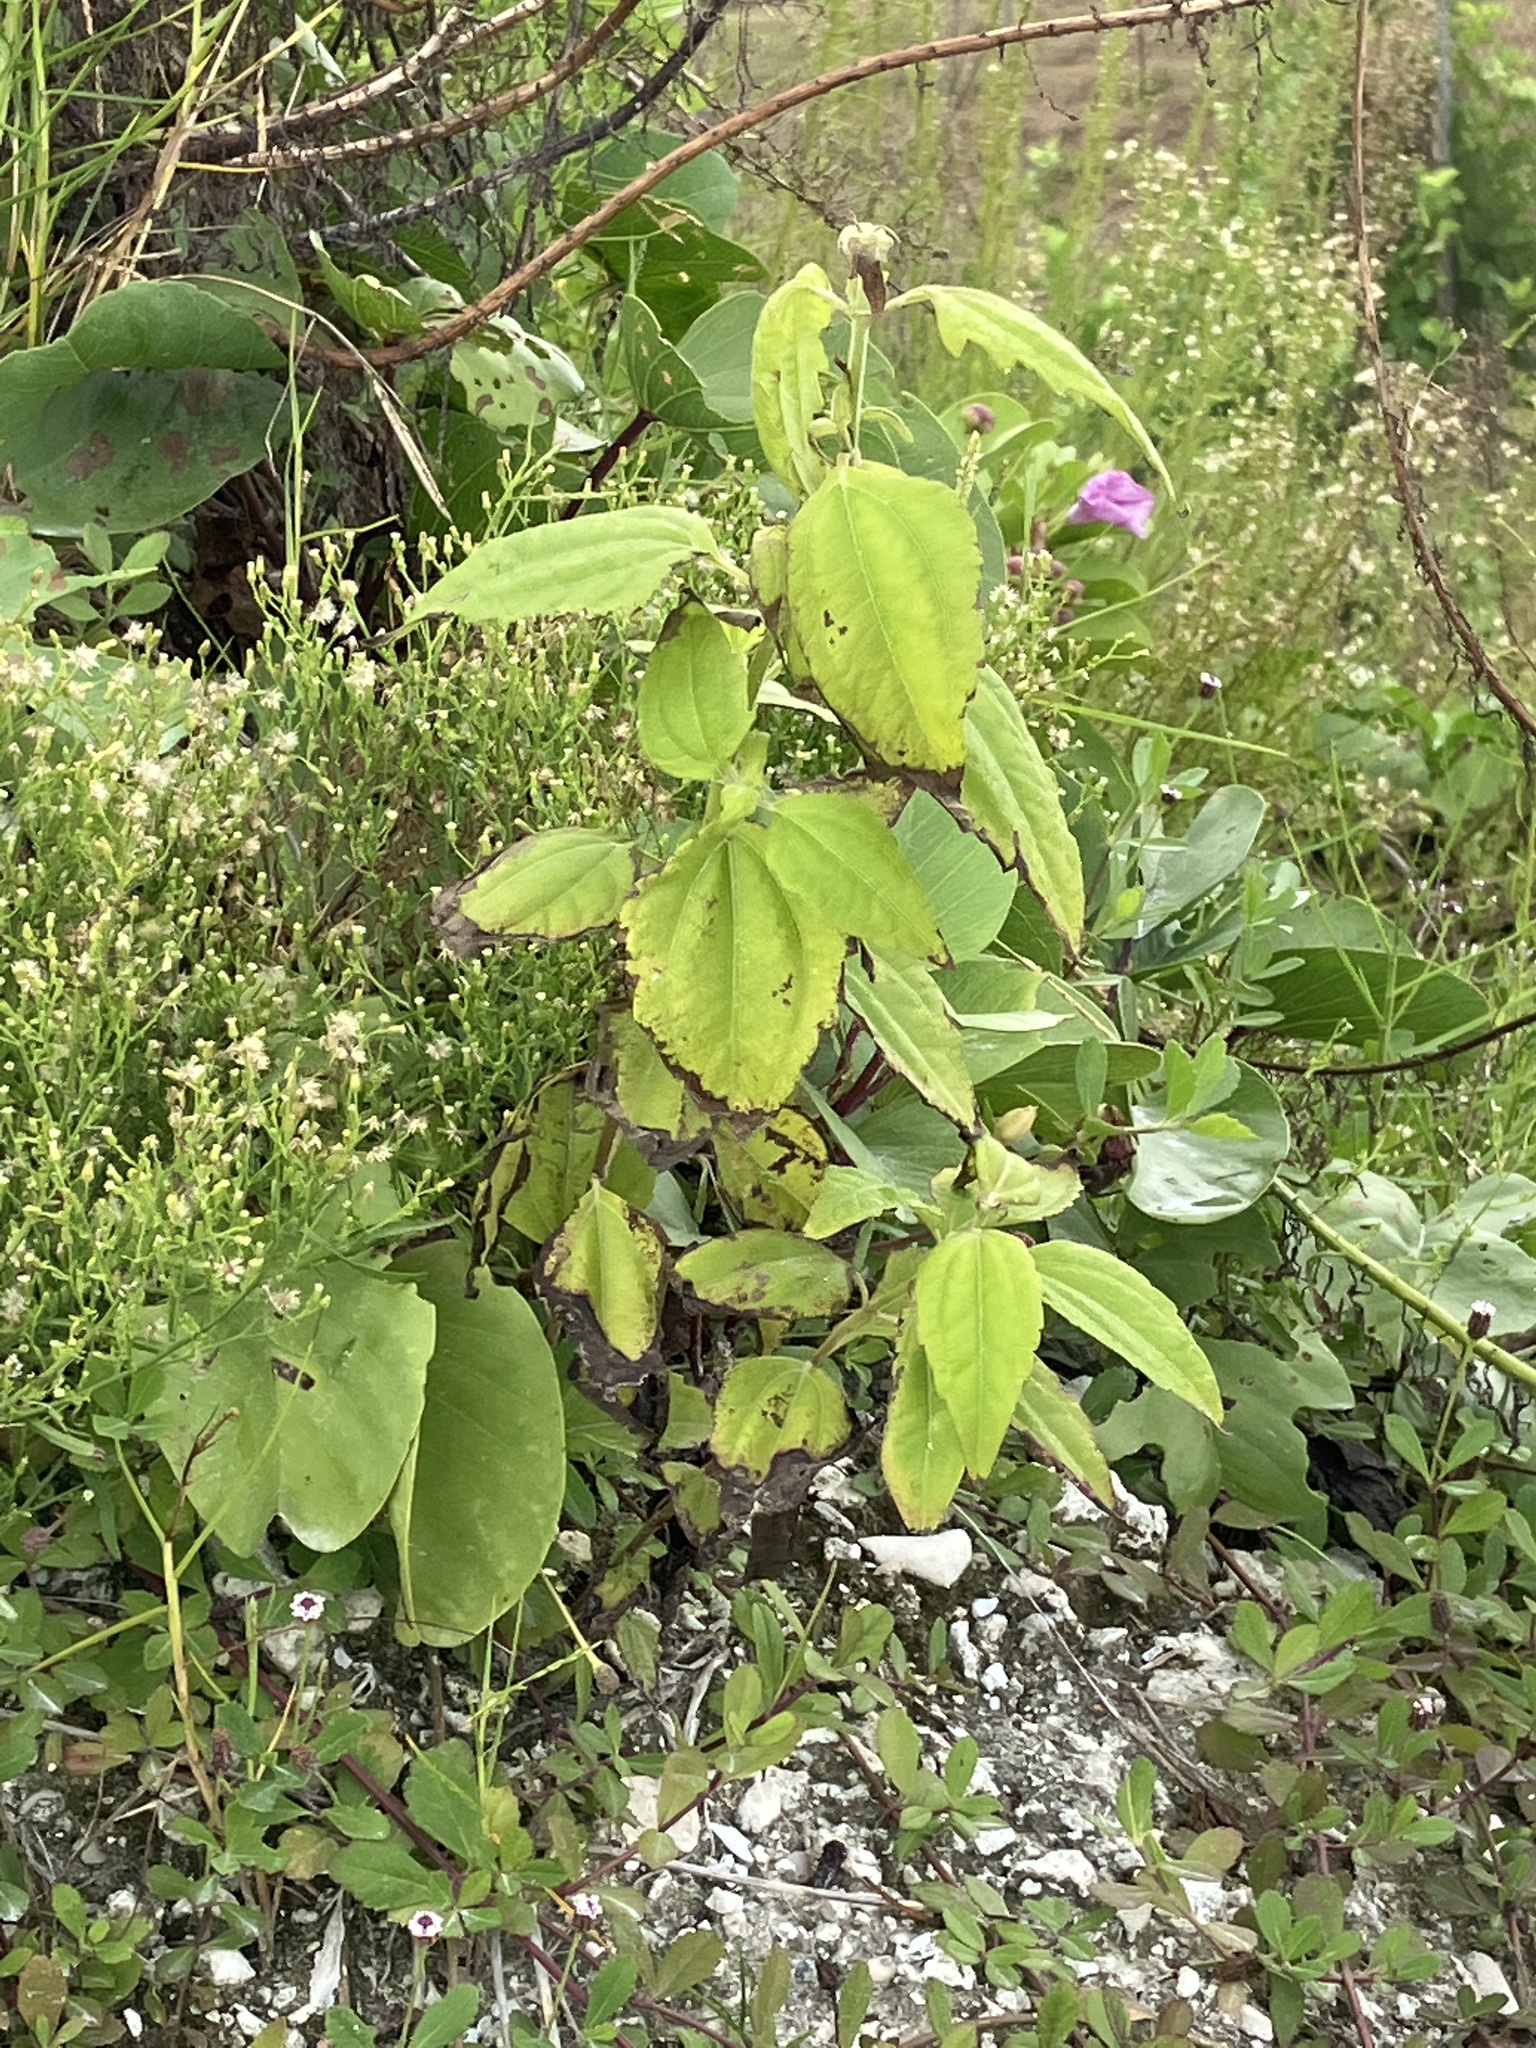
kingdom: Plantae
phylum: Tracheophyta
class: Magnoliopsida
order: Asterales
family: Asteraceae
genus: Chromolaena
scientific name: Chromolaena odorata
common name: Siamweed
